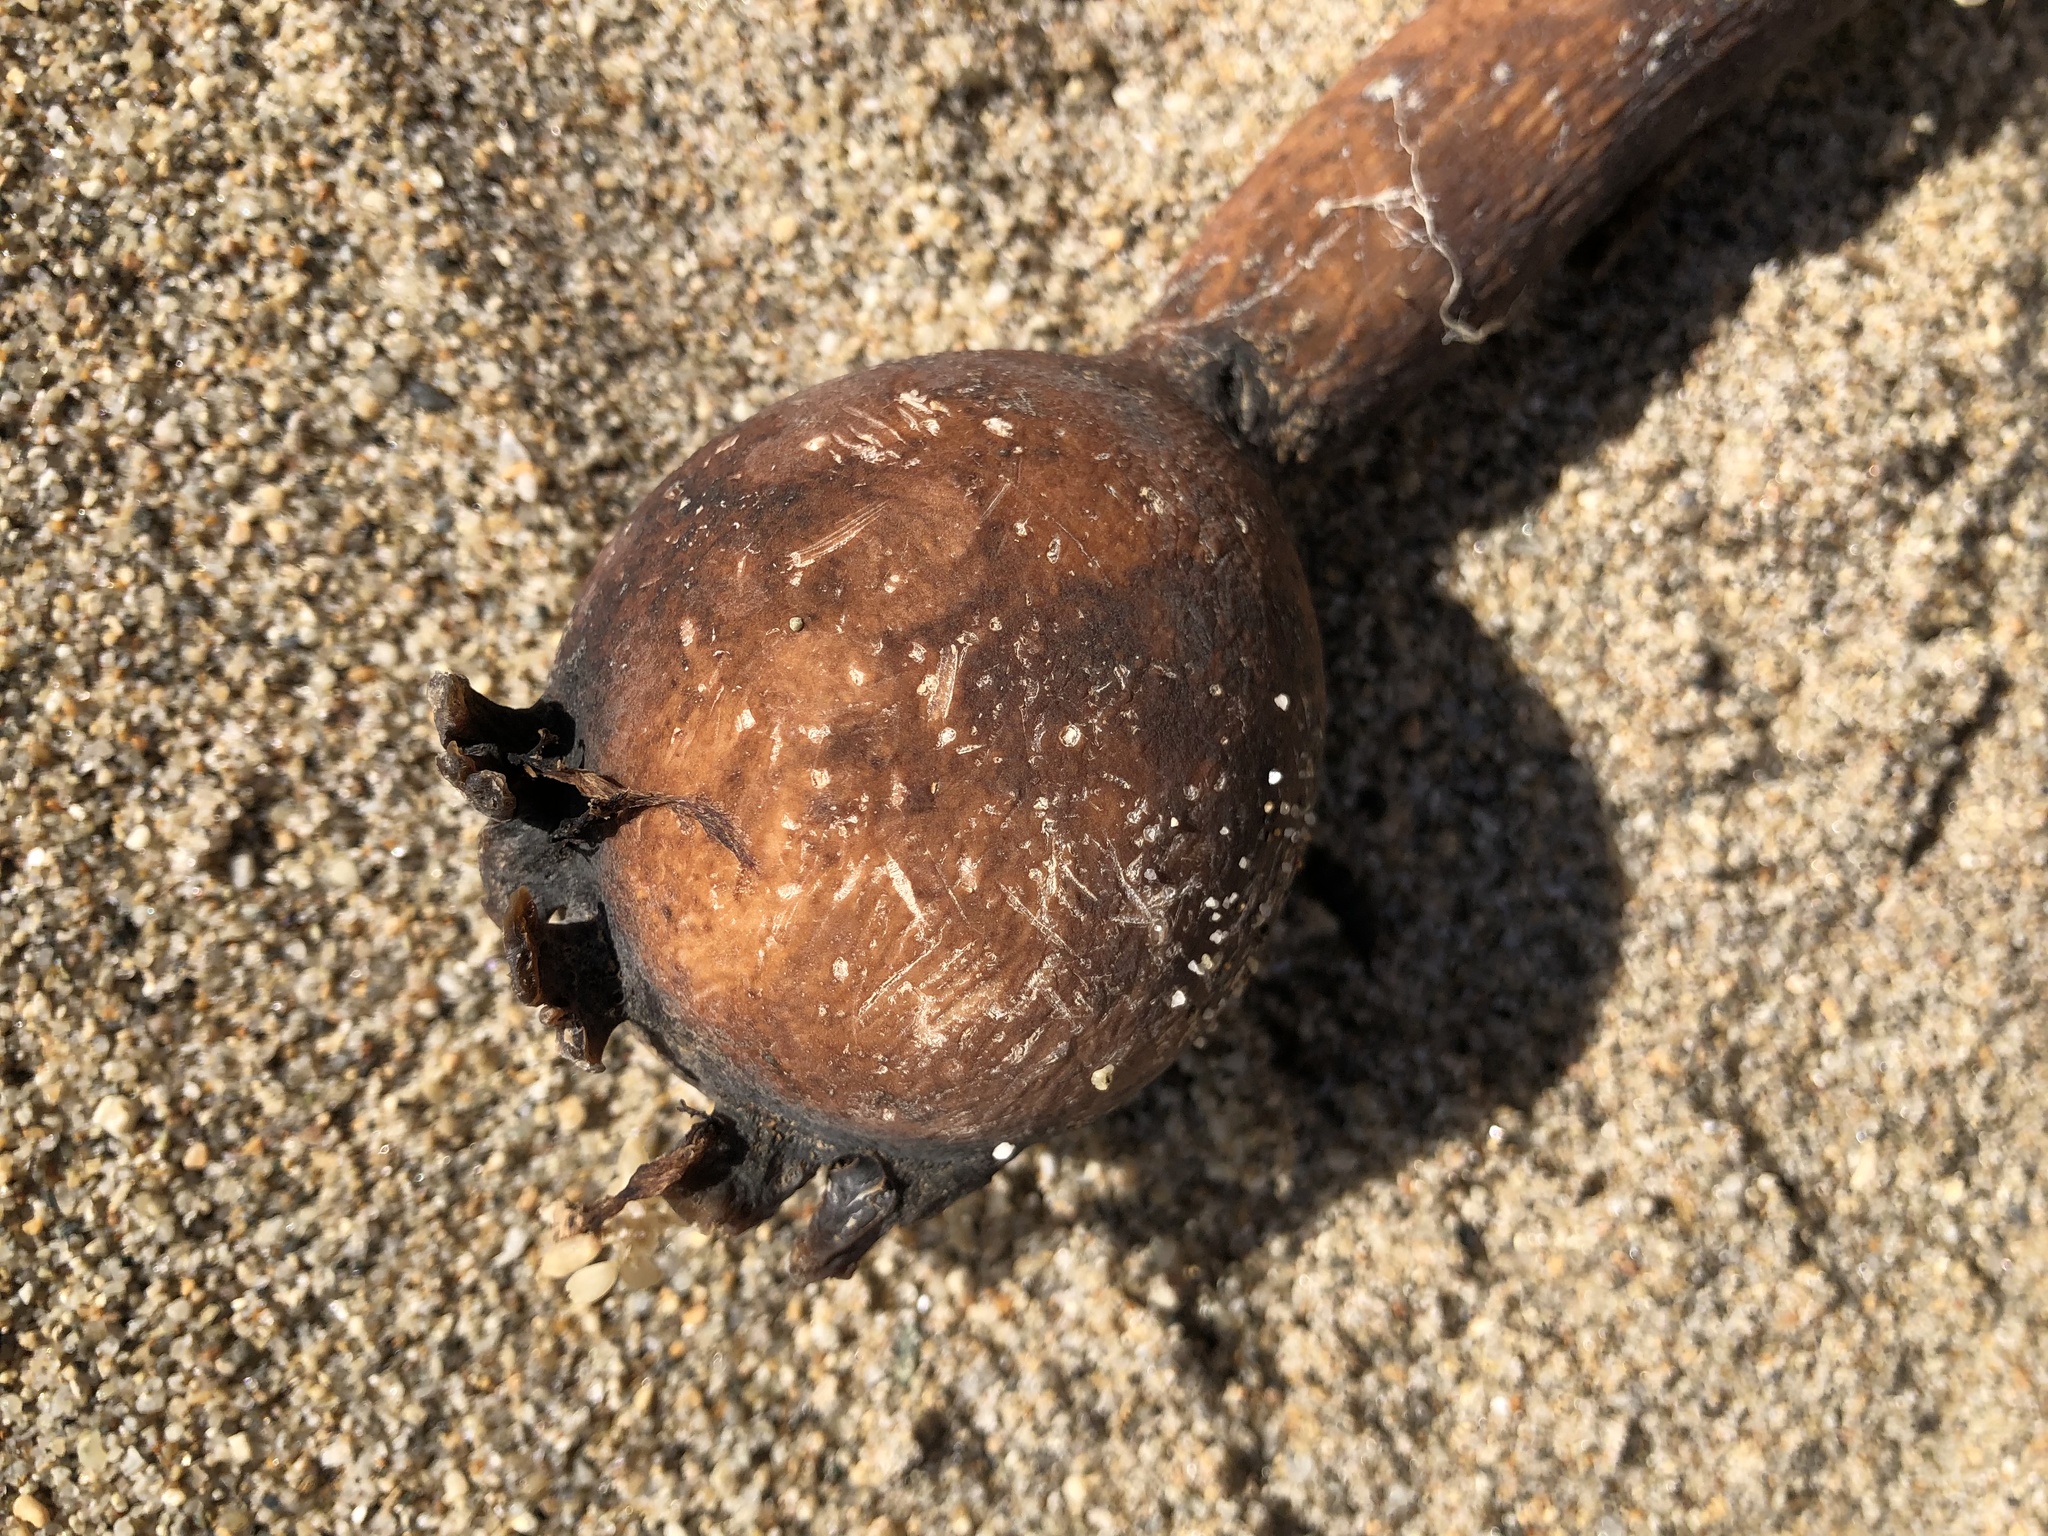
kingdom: Chromista
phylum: Ochrophyta
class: Phaeophyceae
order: Laminariales
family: Laminariaceae
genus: Nereocystis
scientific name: Nereocystis luetkeana
